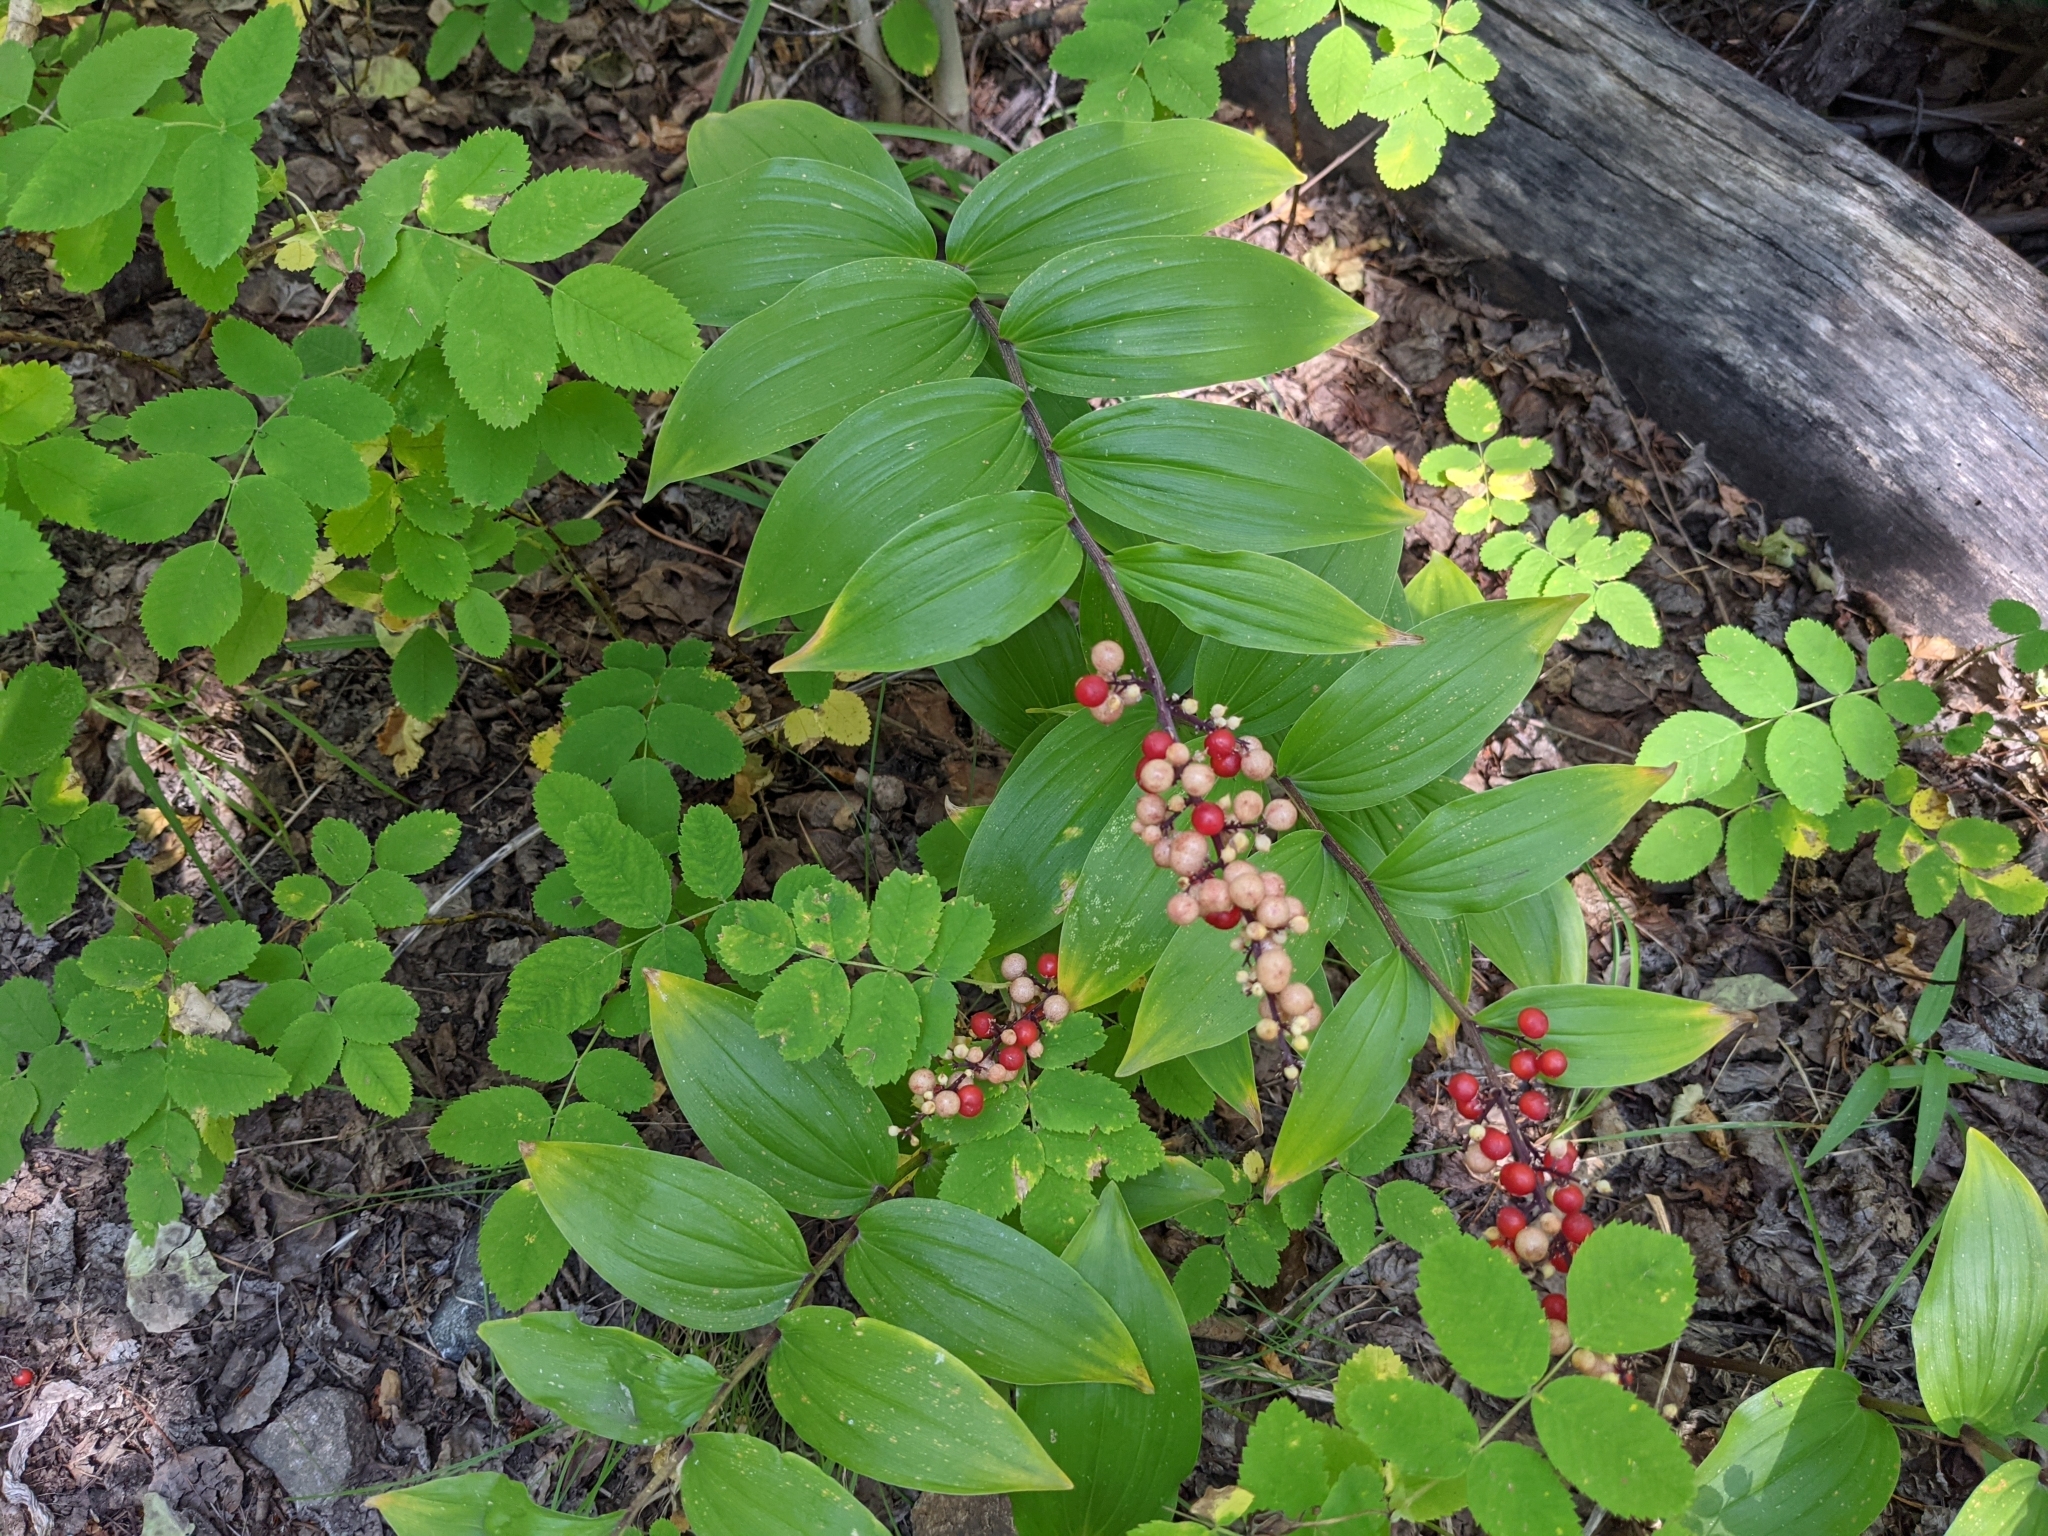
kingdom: Plantae
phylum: Tracheophyta
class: Liliopsida
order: Asparagales
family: Asparagaceae
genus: Maianthemum
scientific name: Maianthemum racemosum
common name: False spikenard
